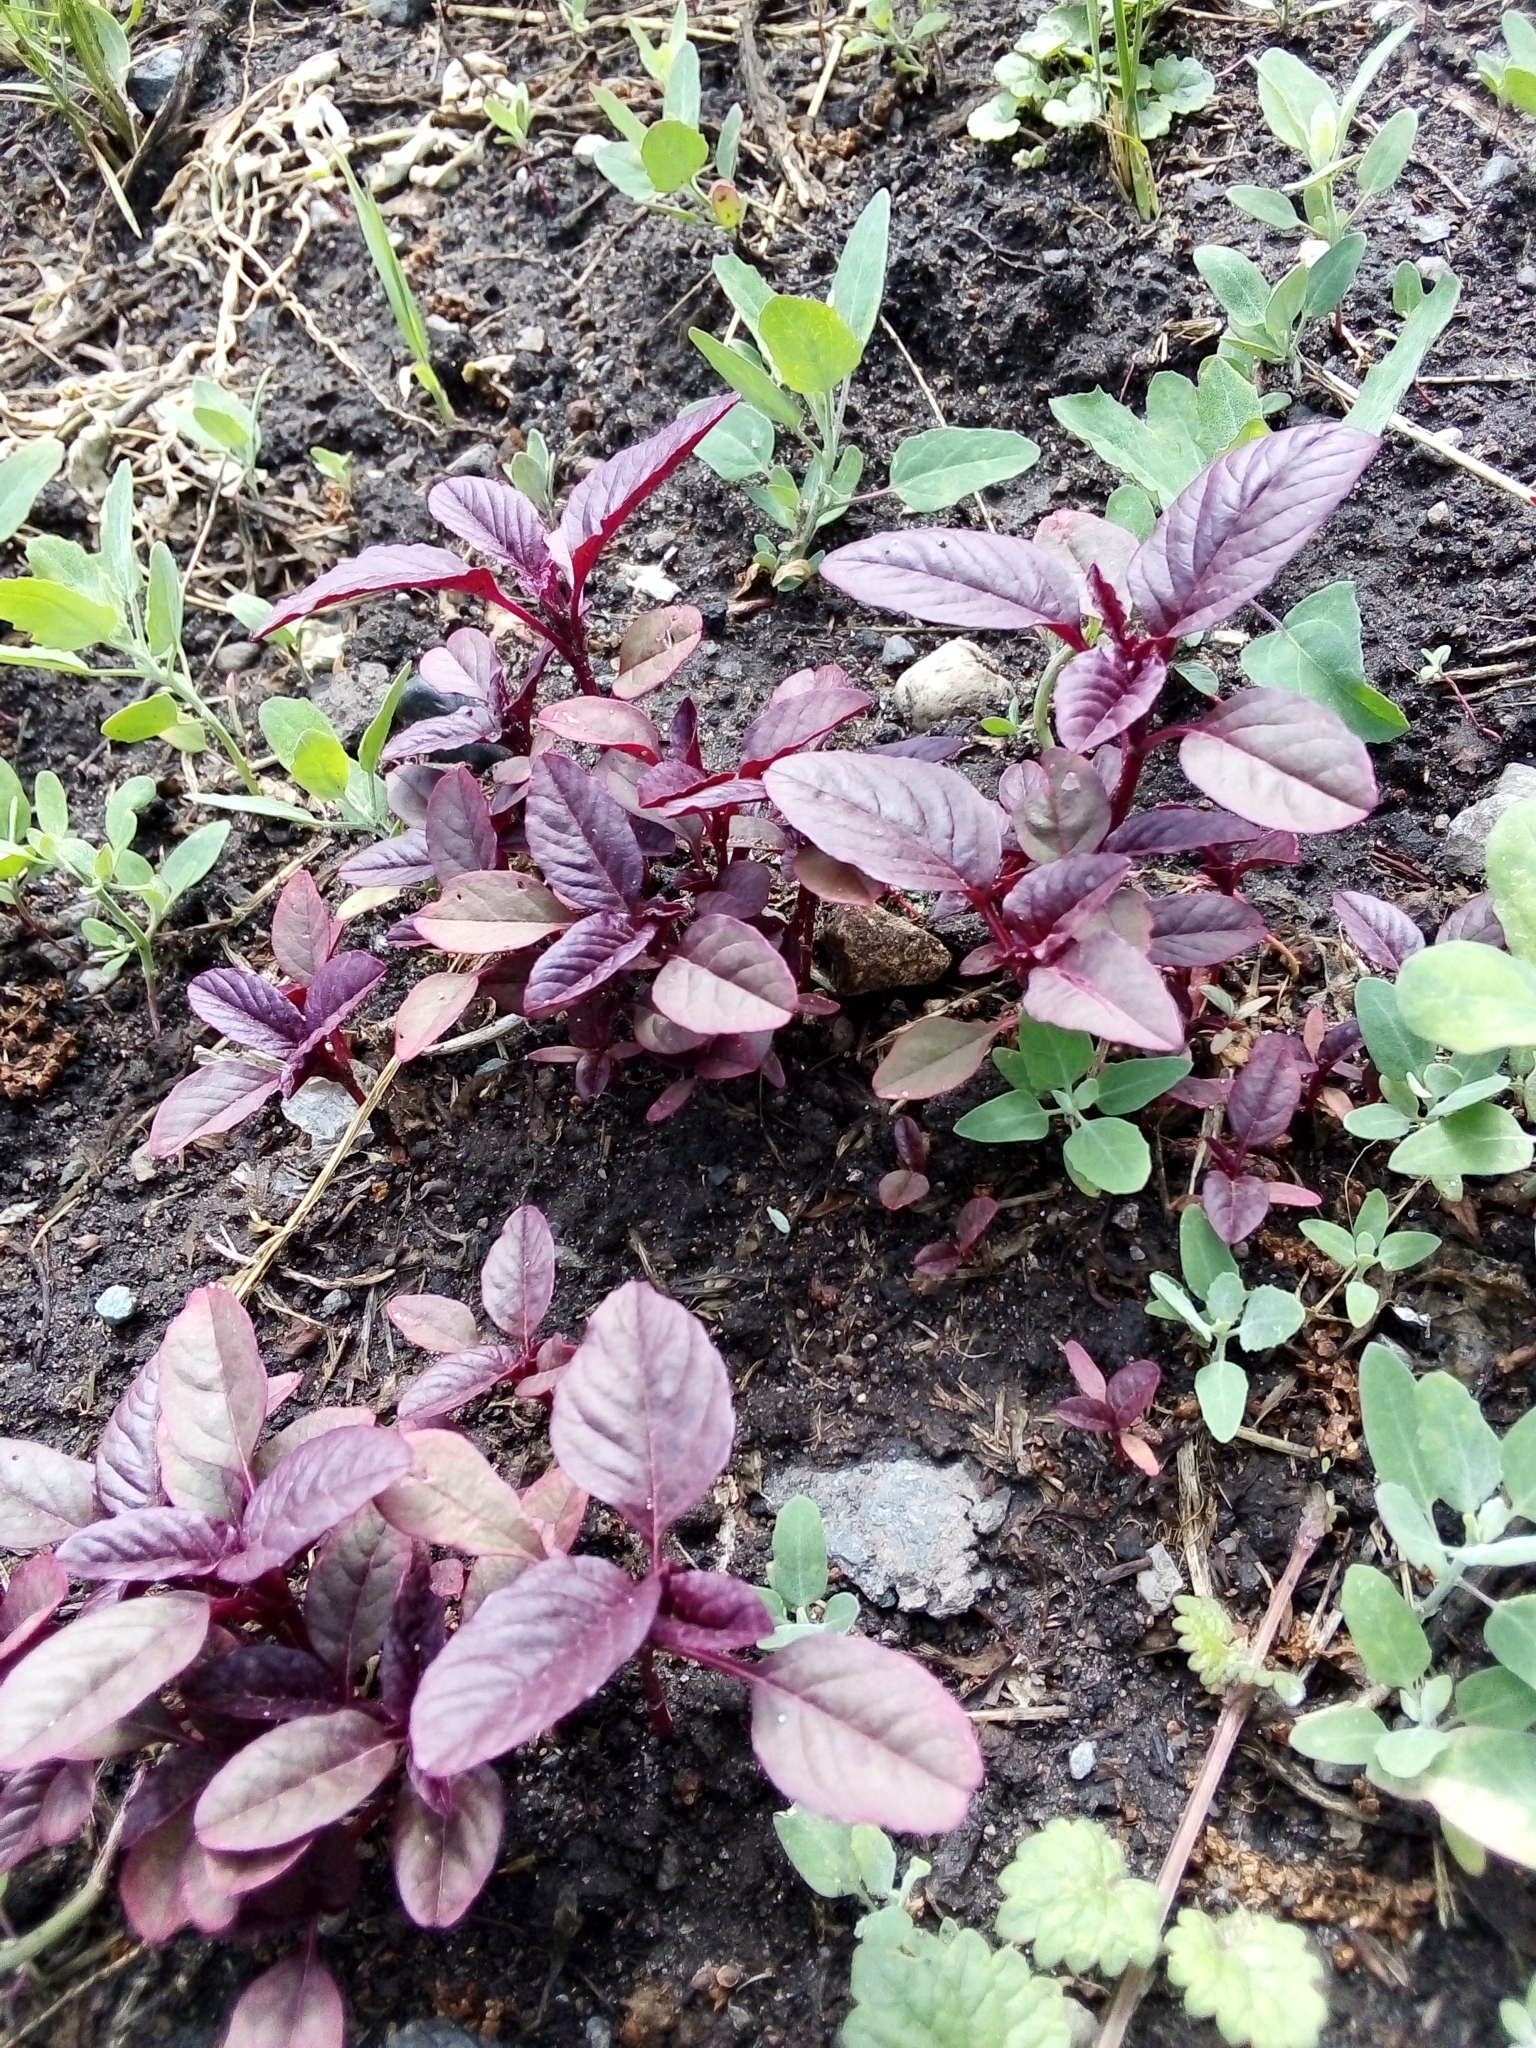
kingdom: Plantae
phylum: Tracheophyta
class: Magnoliopsida
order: Caryophyllales
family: Amaranthaceae
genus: Amaranthus
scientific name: Amaranthus cruentus
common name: Purple amaranth
